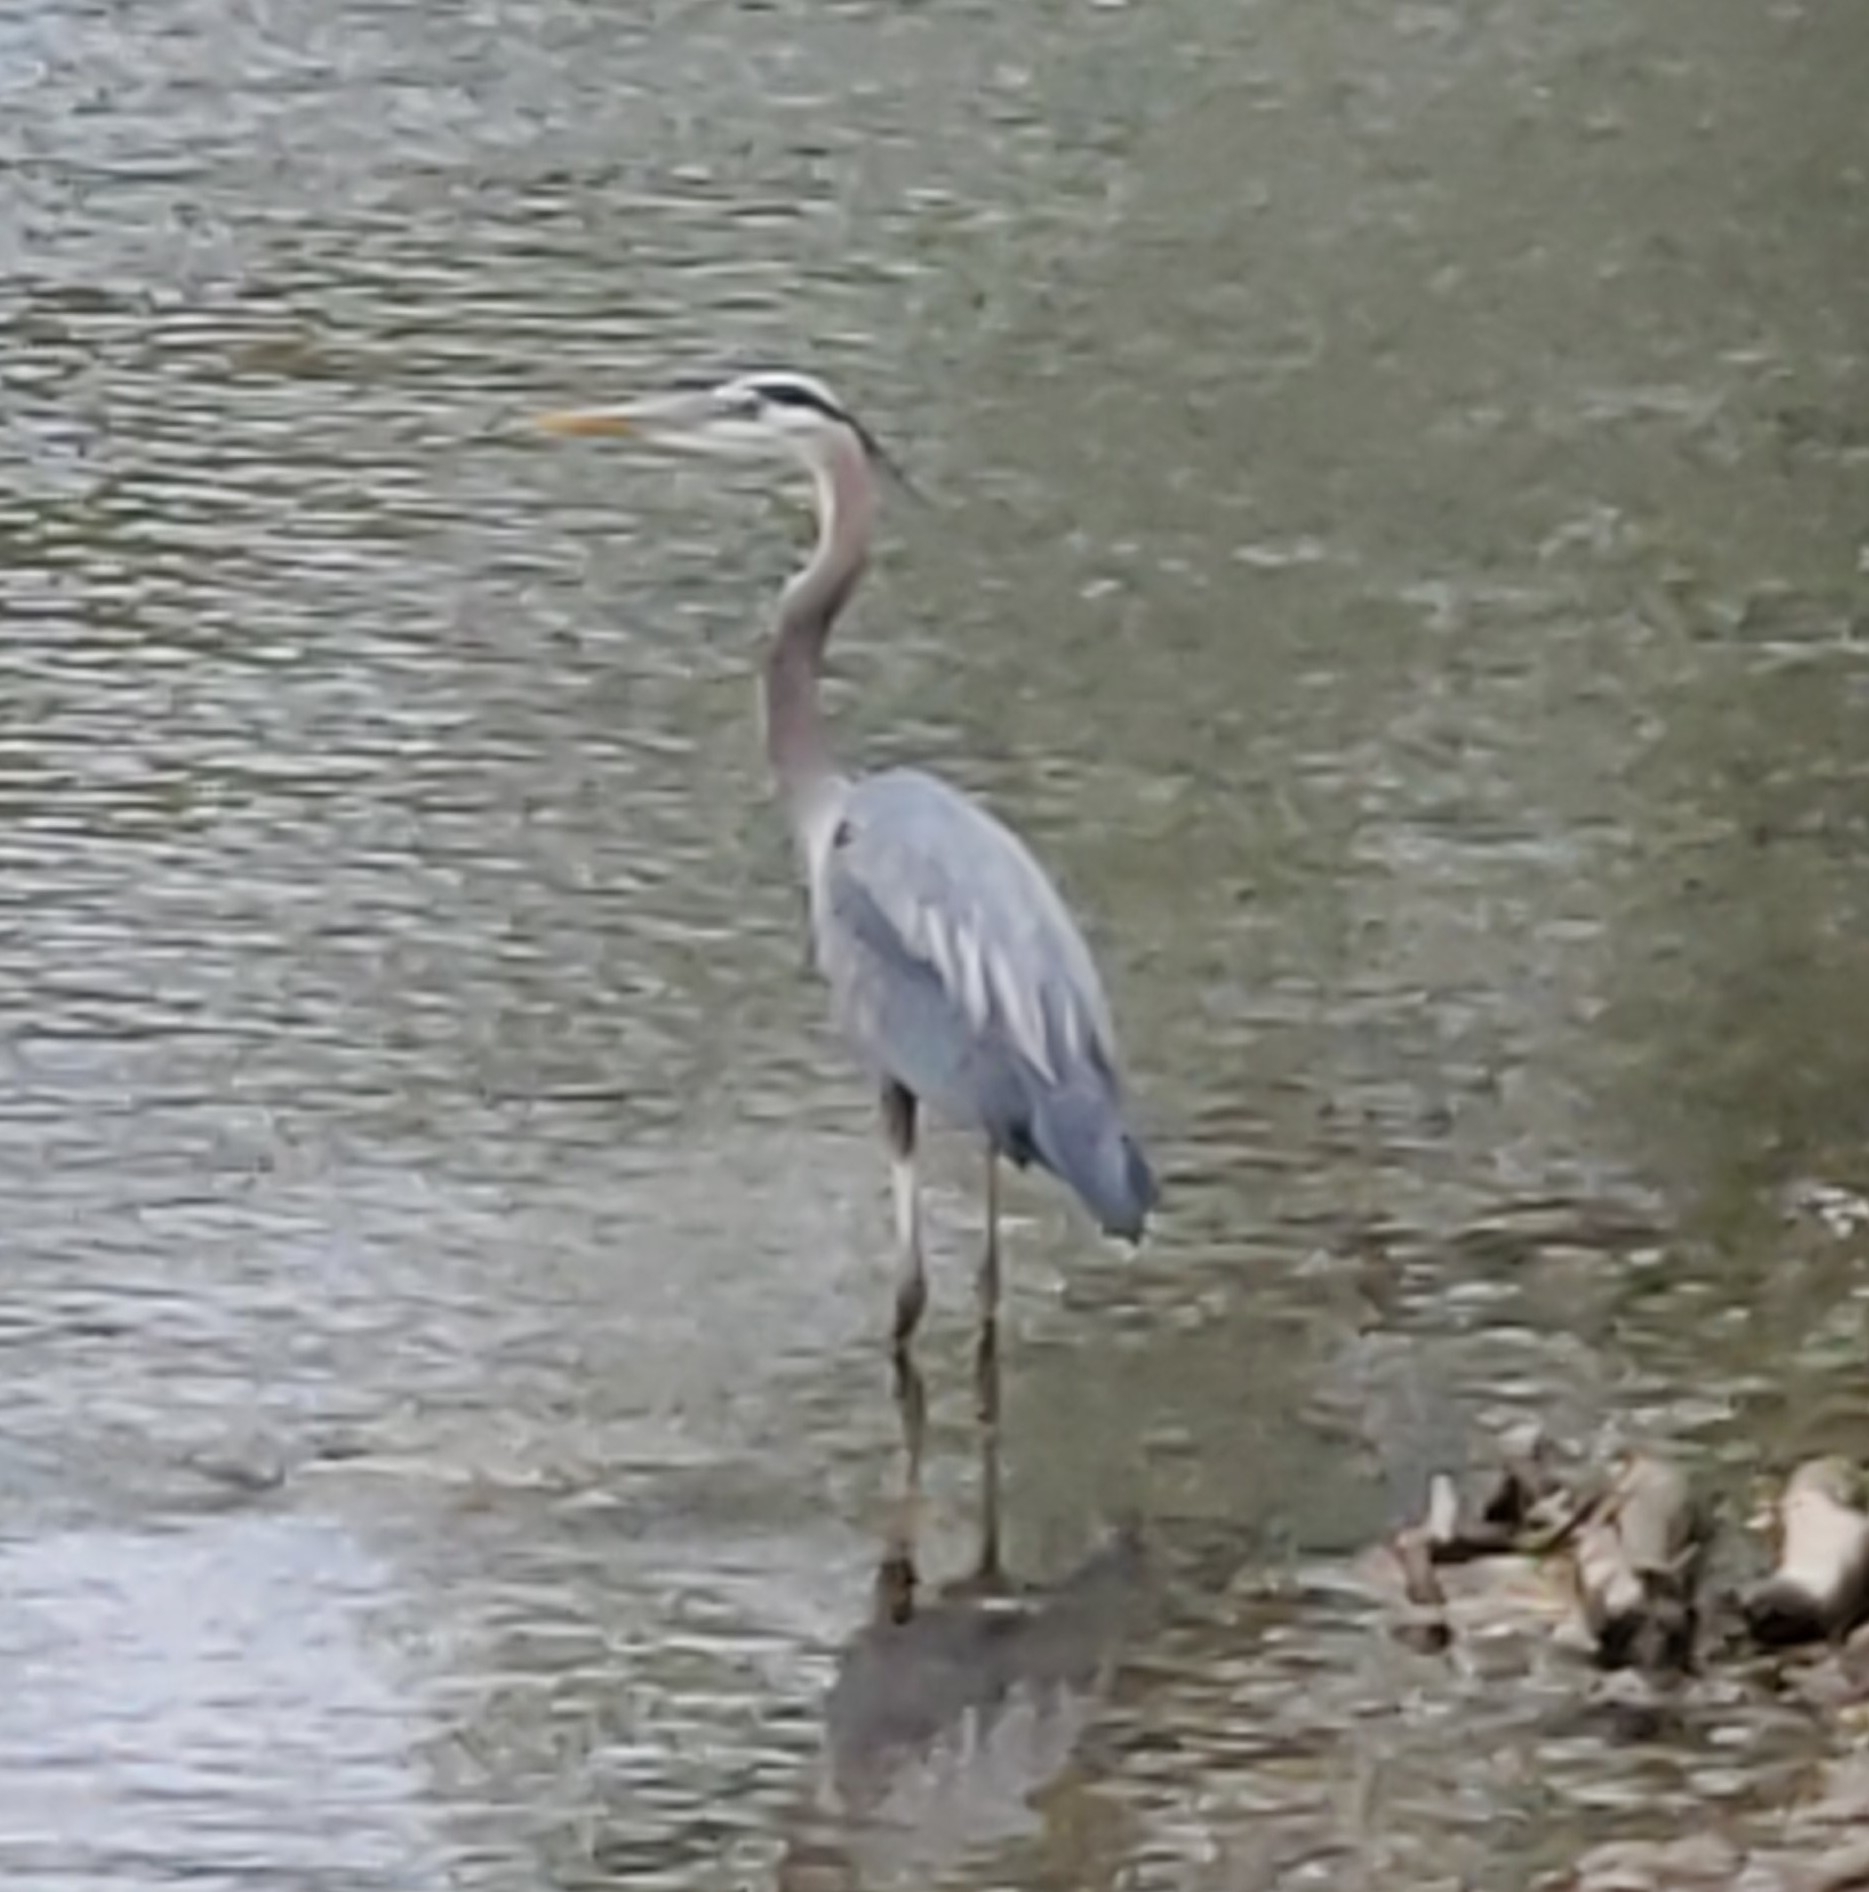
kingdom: Animalia
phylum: Chordata
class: Aves
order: Pelecaniformes
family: Ardeidae
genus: Ardea
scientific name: Ardea herodias
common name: Great blue heron
